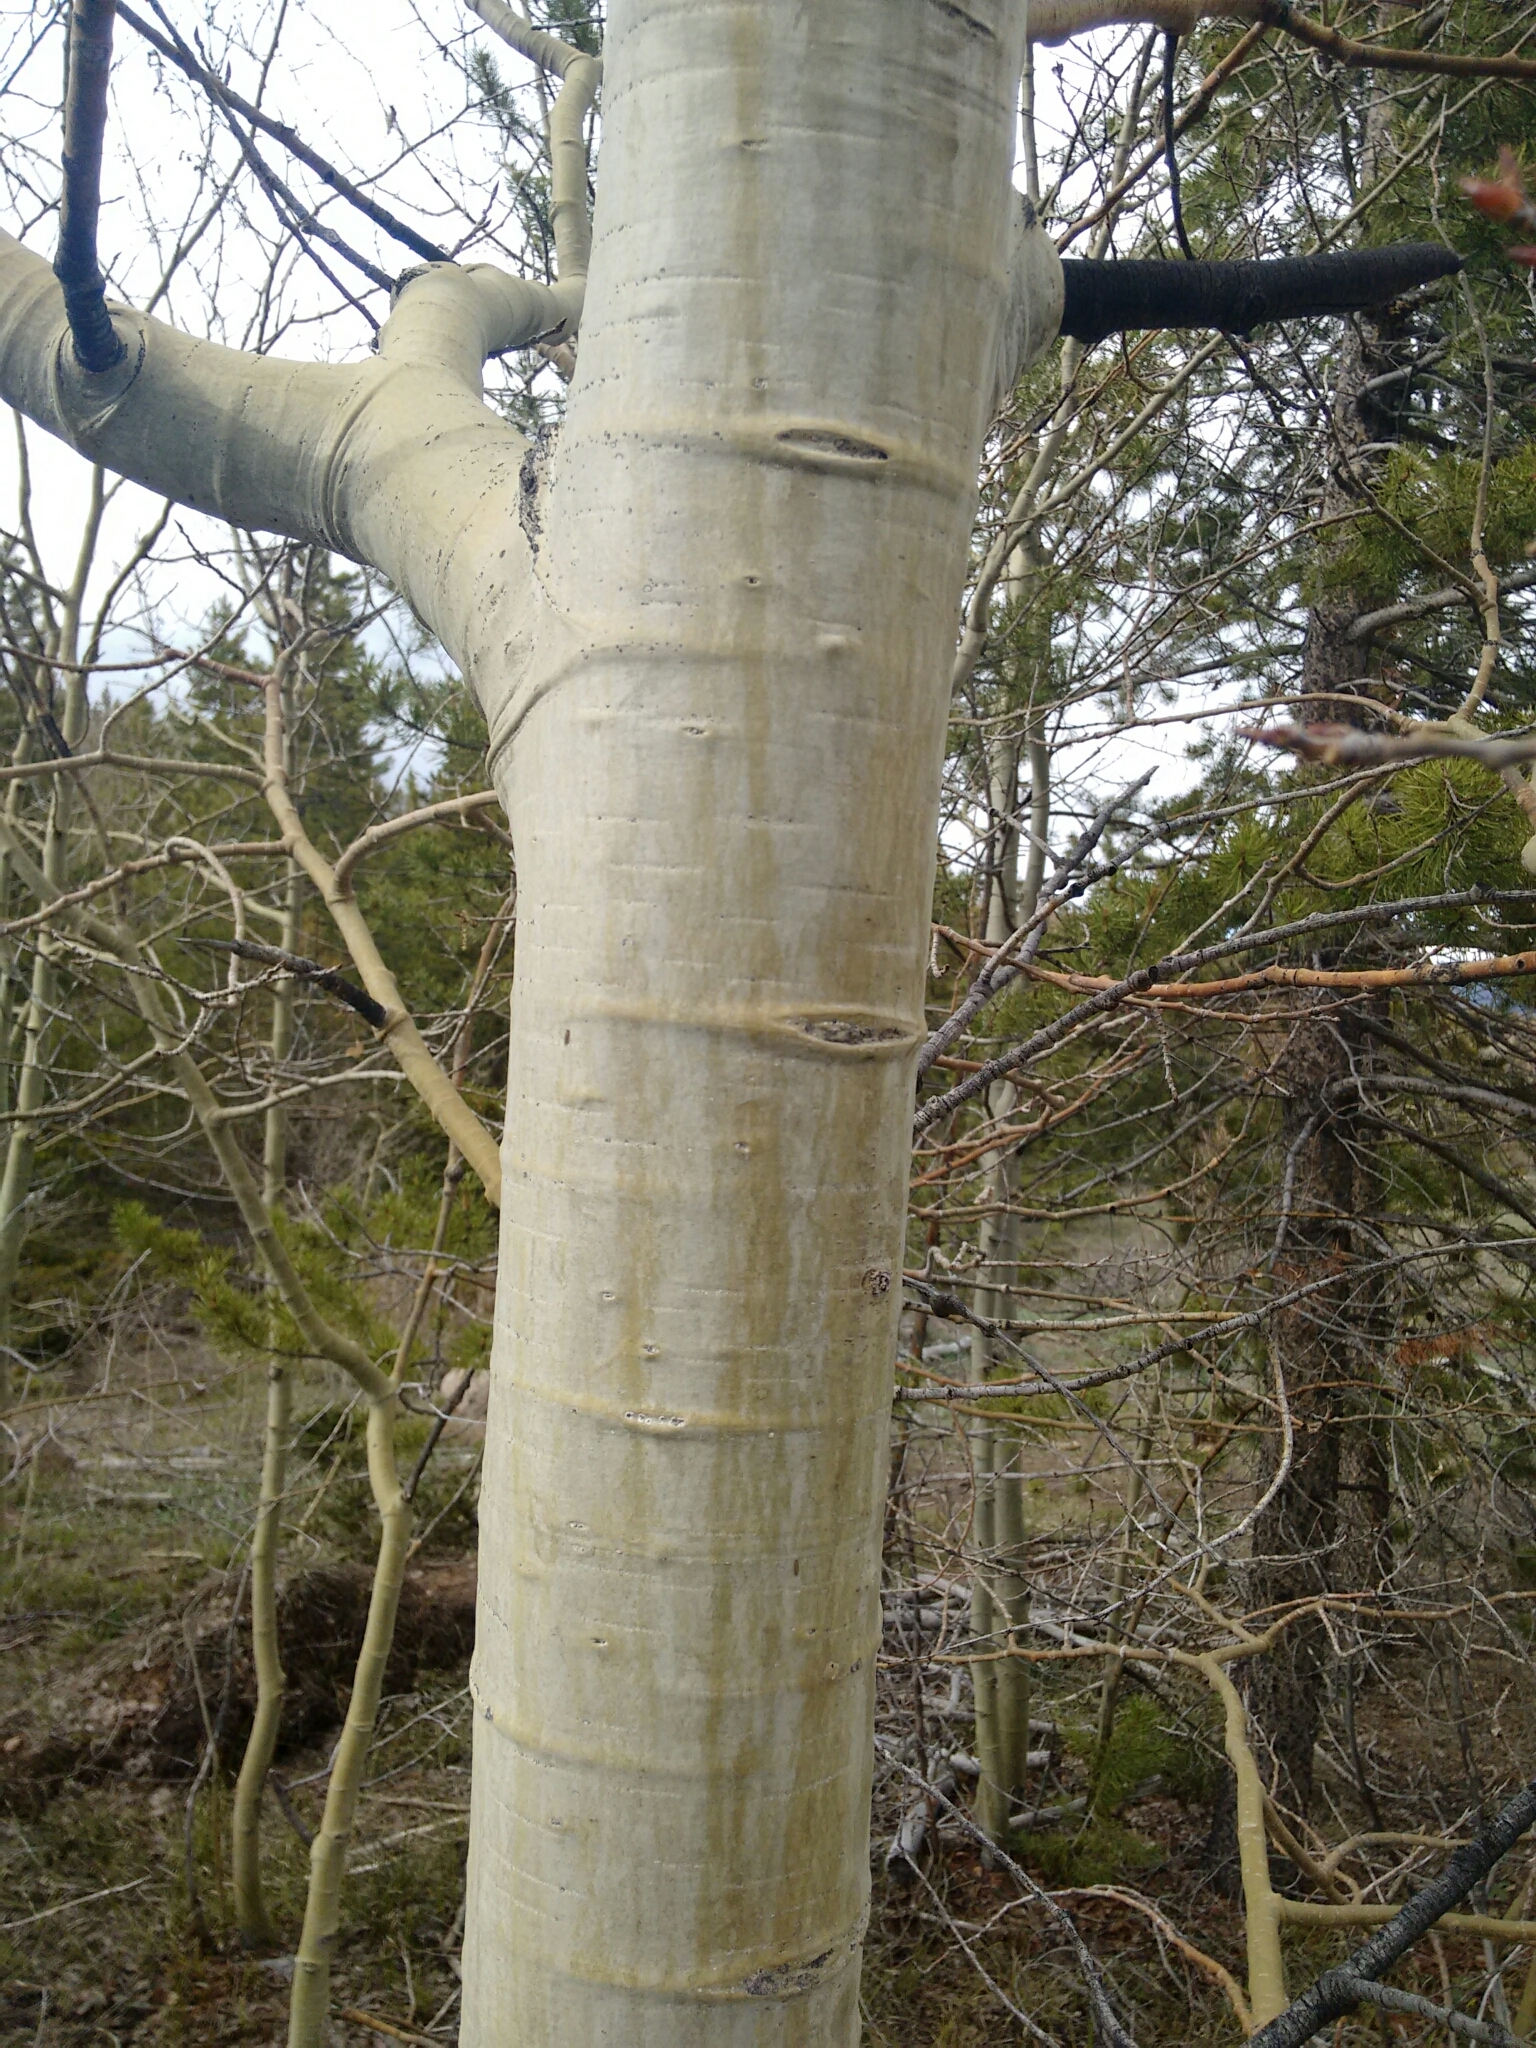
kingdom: Plantae
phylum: Tracheophyta
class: Magnoliopsida
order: Malpighiales
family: Salicaceae
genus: Populus
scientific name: Populus tremuloides
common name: Quaking aspen
